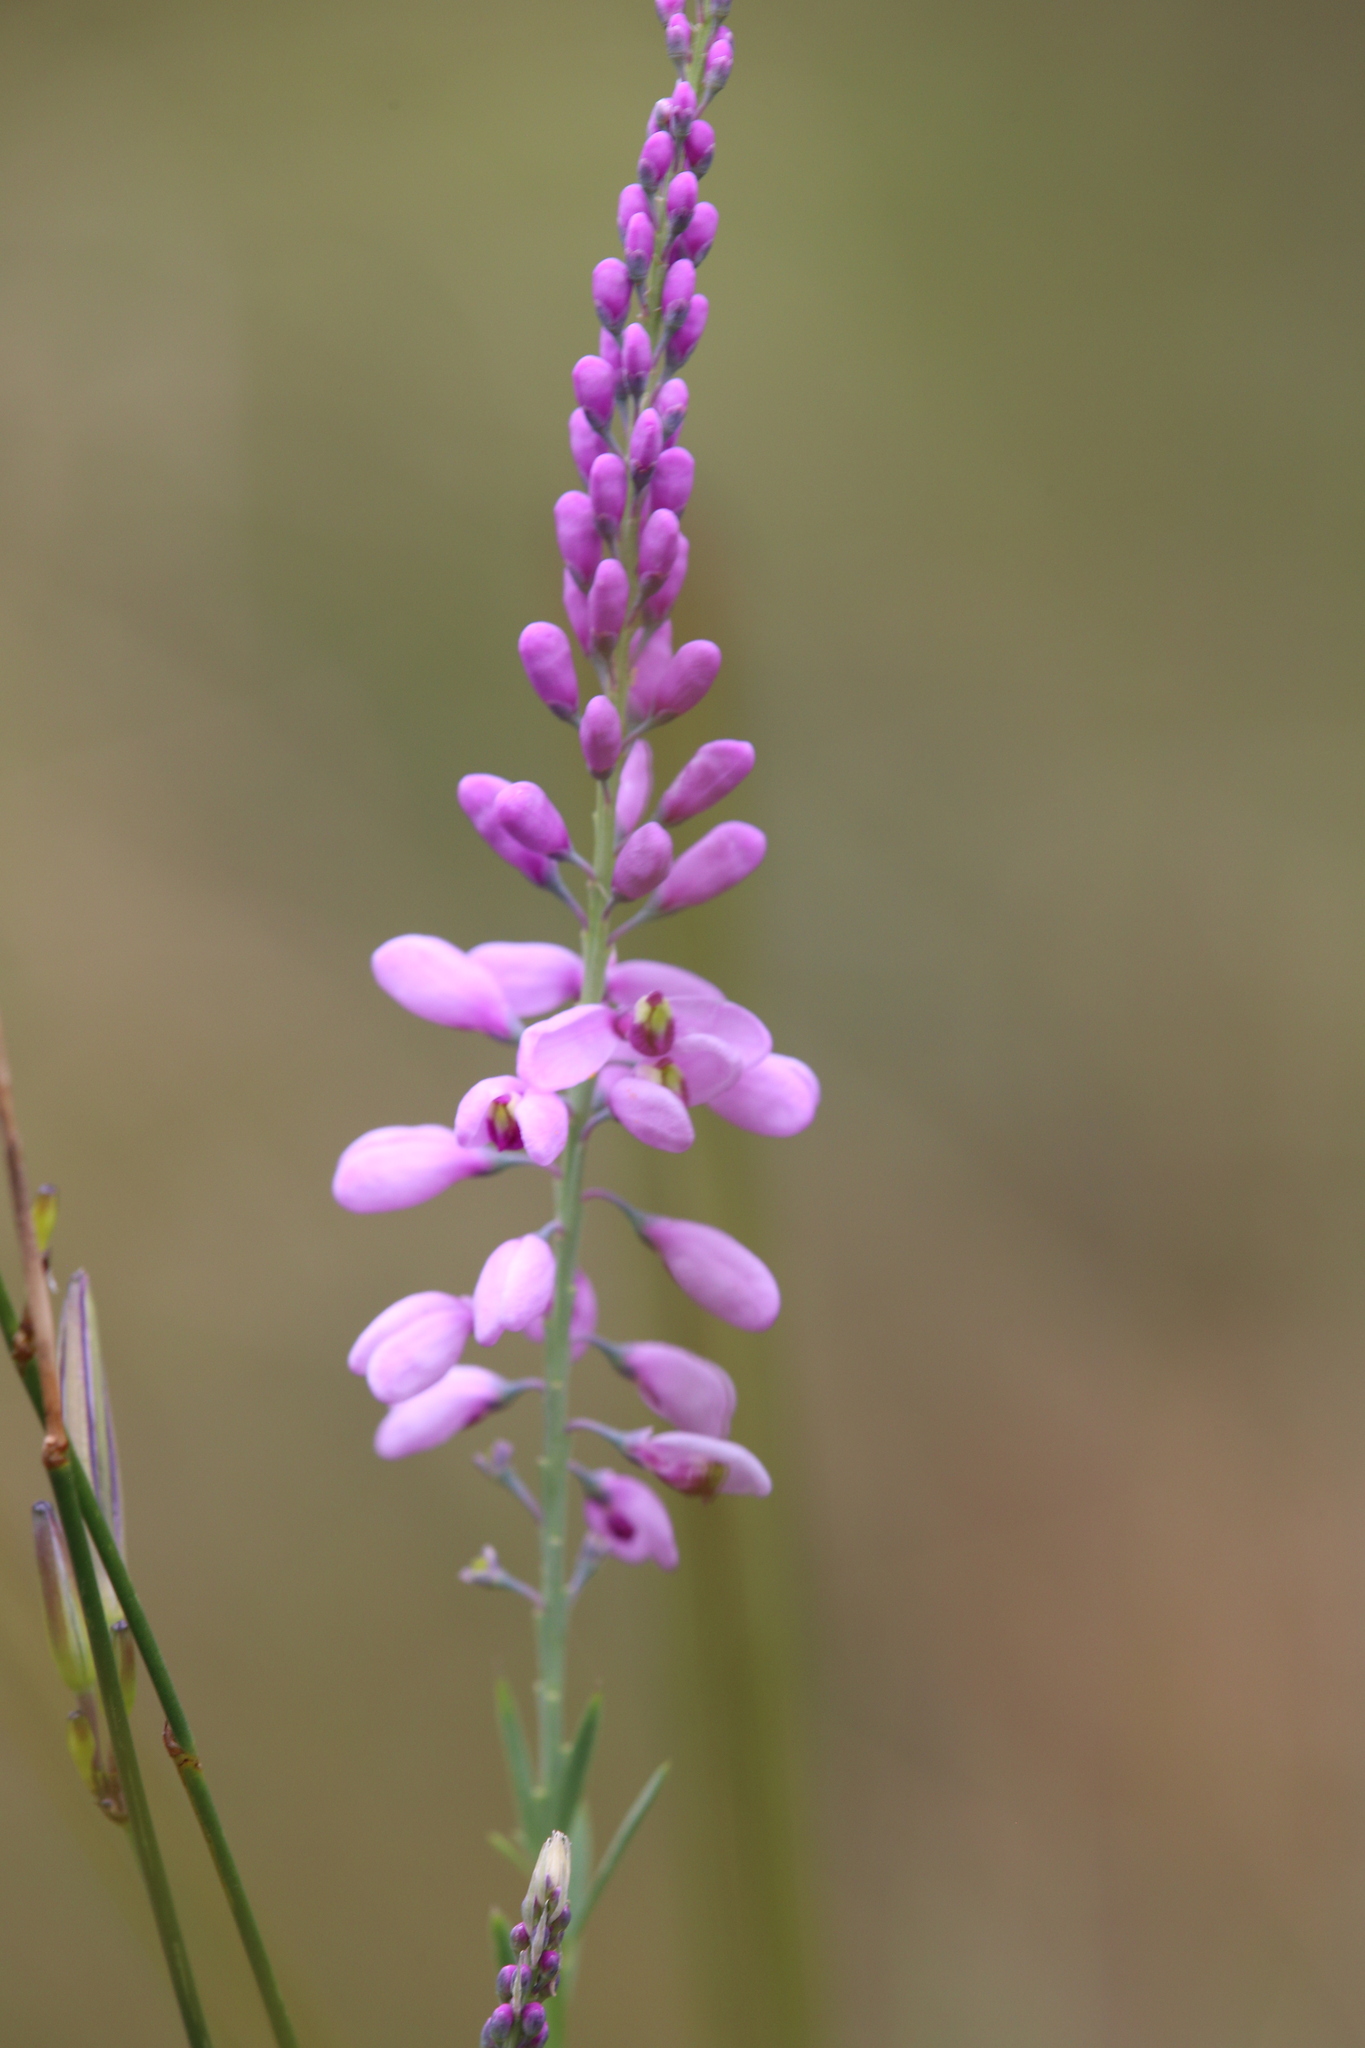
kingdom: Plantae
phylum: Tracheophyta
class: Magnoliopsida
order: Fabales
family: Polygalaceae
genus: Comesperma
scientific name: Comesperma virgatum
